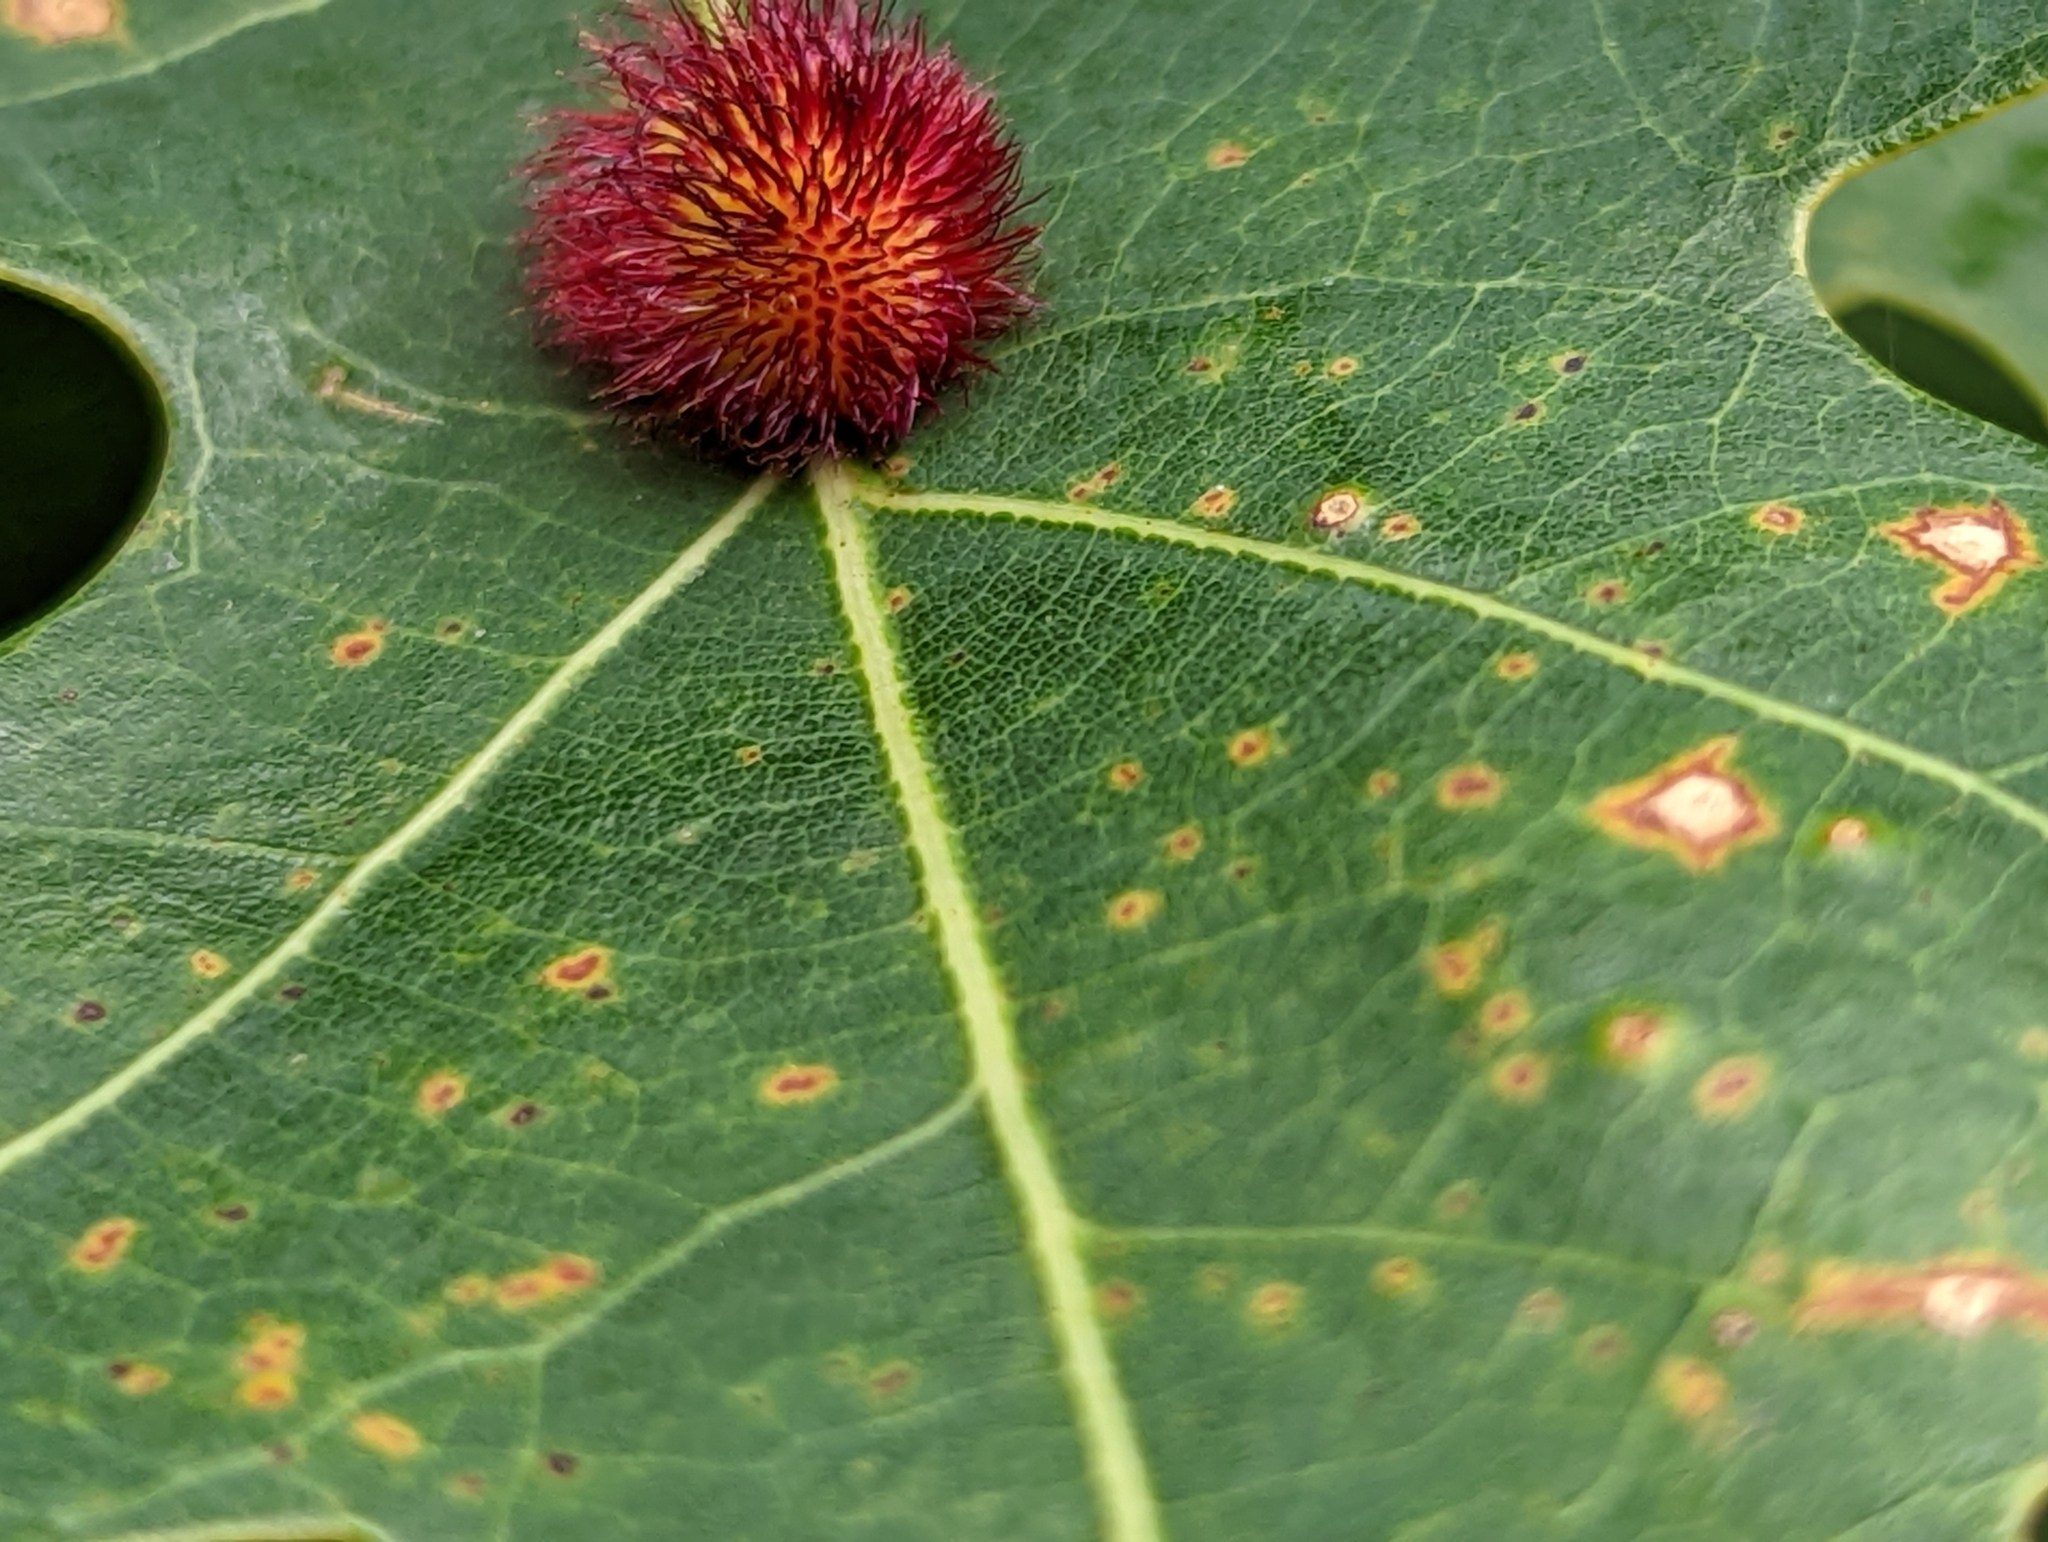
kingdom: Animalia
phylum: Arthropoda
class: Insecta
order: Hymenoptera
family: Cynipidae
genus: Acraspis
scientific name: Acraspis erinacei
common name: Hedgehog gall wasp
